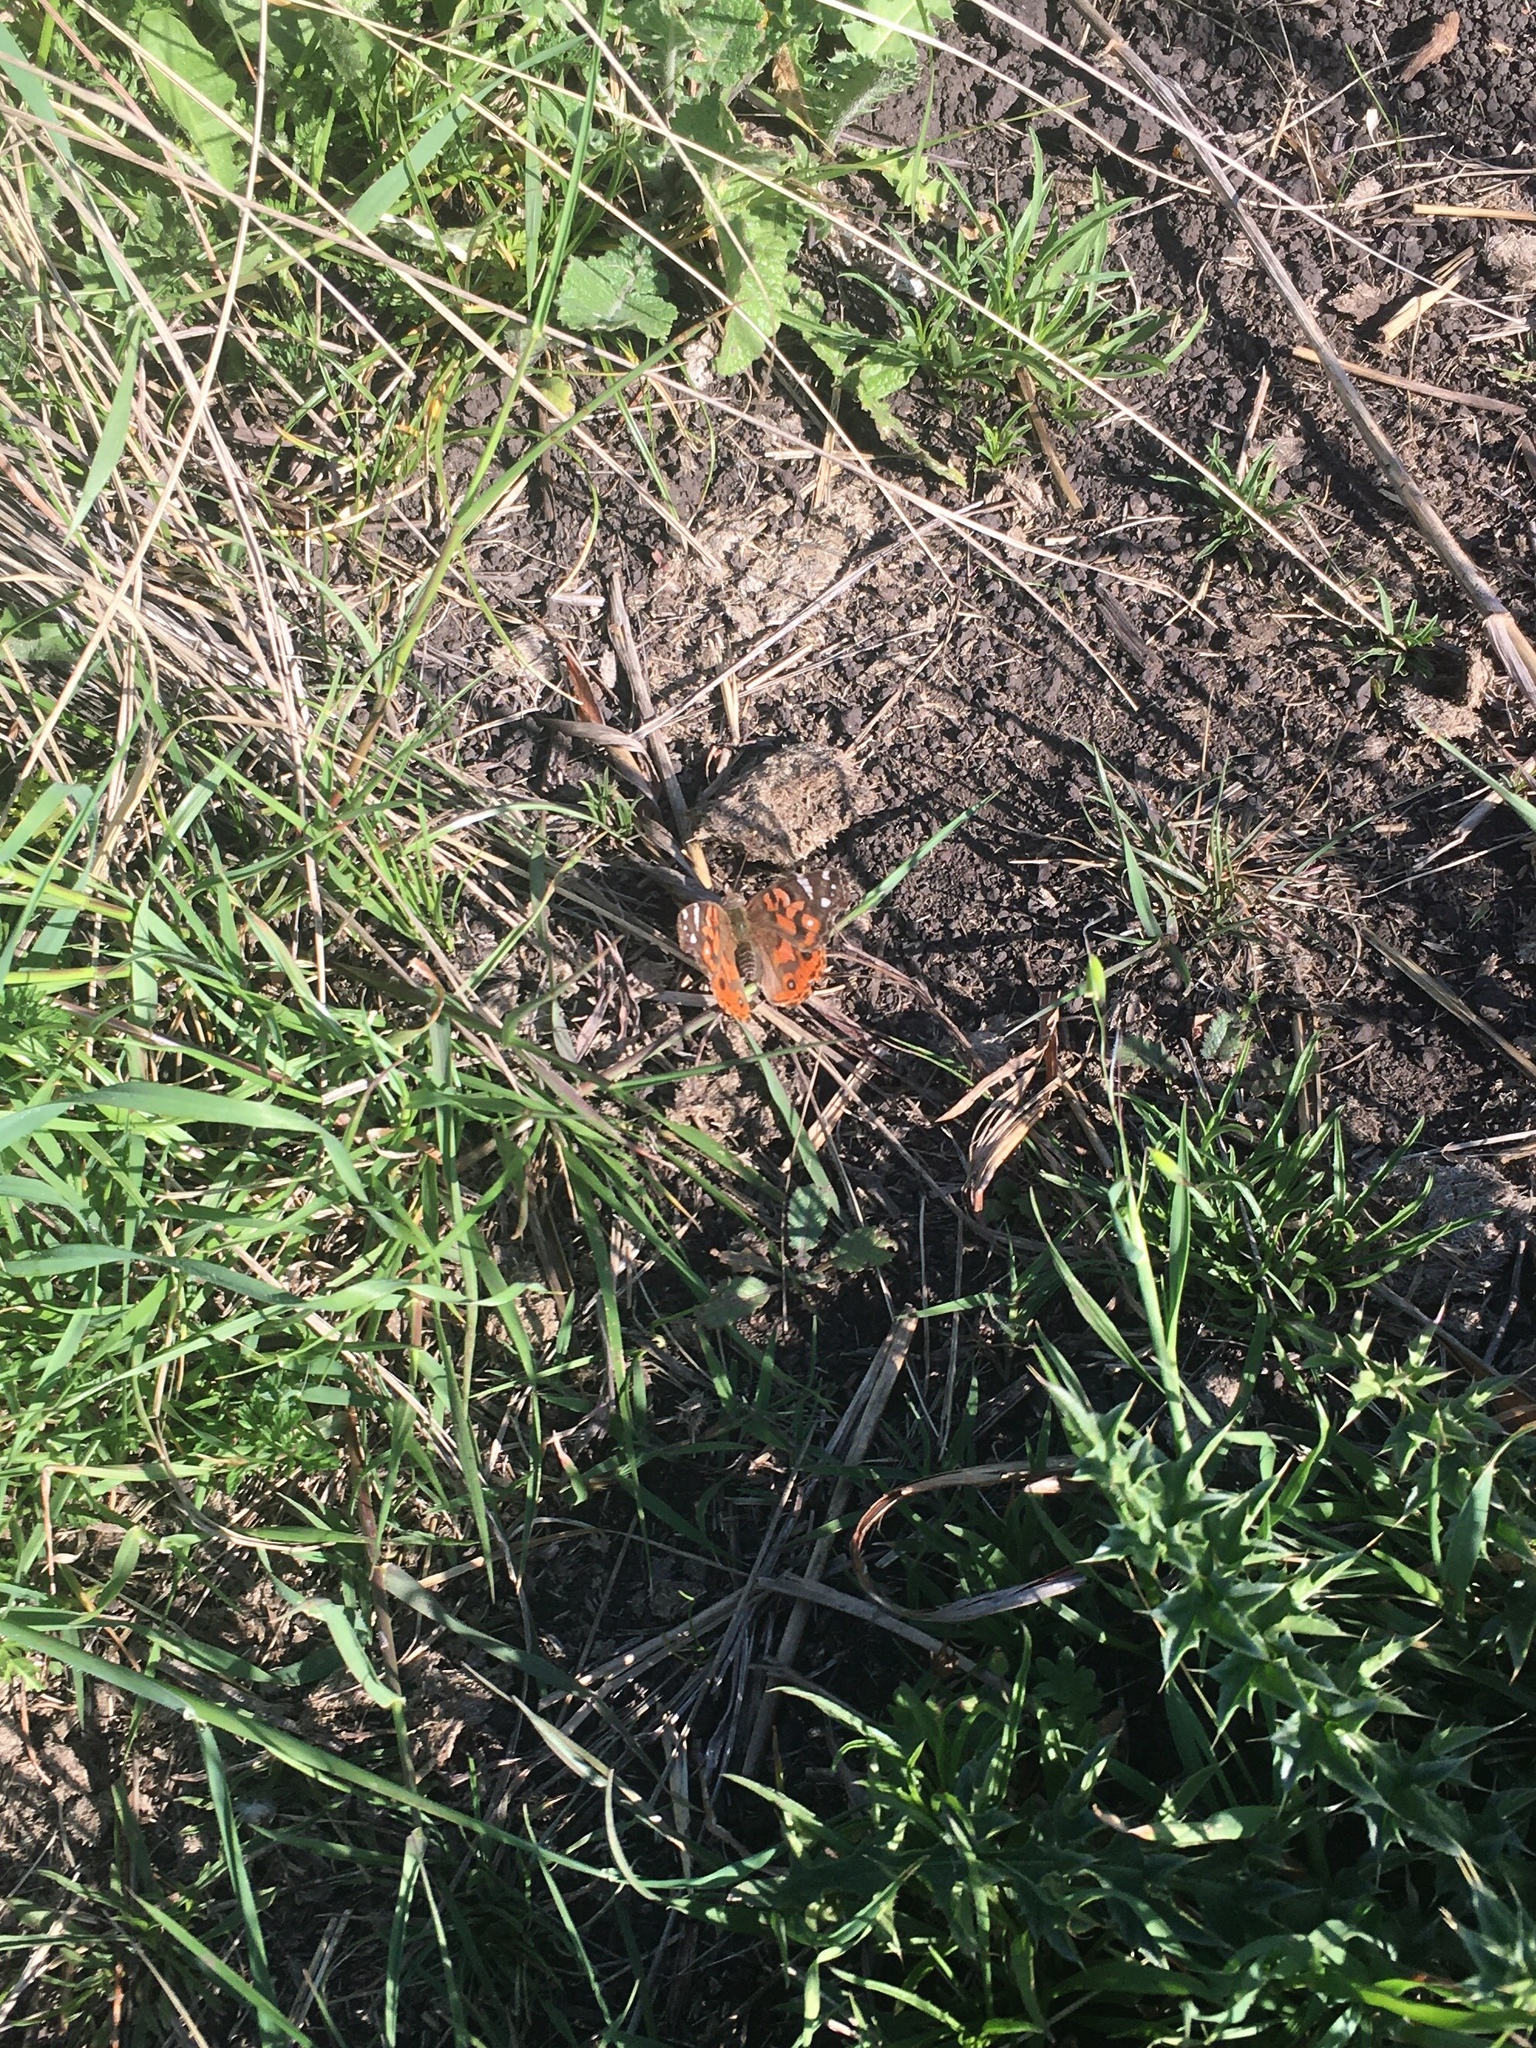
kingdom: Animalia
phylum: Arthropoda
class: Insecta
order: Lepidoptera
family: Nymphalidae
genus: Vanessa
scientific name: Vanessa braziliensis
